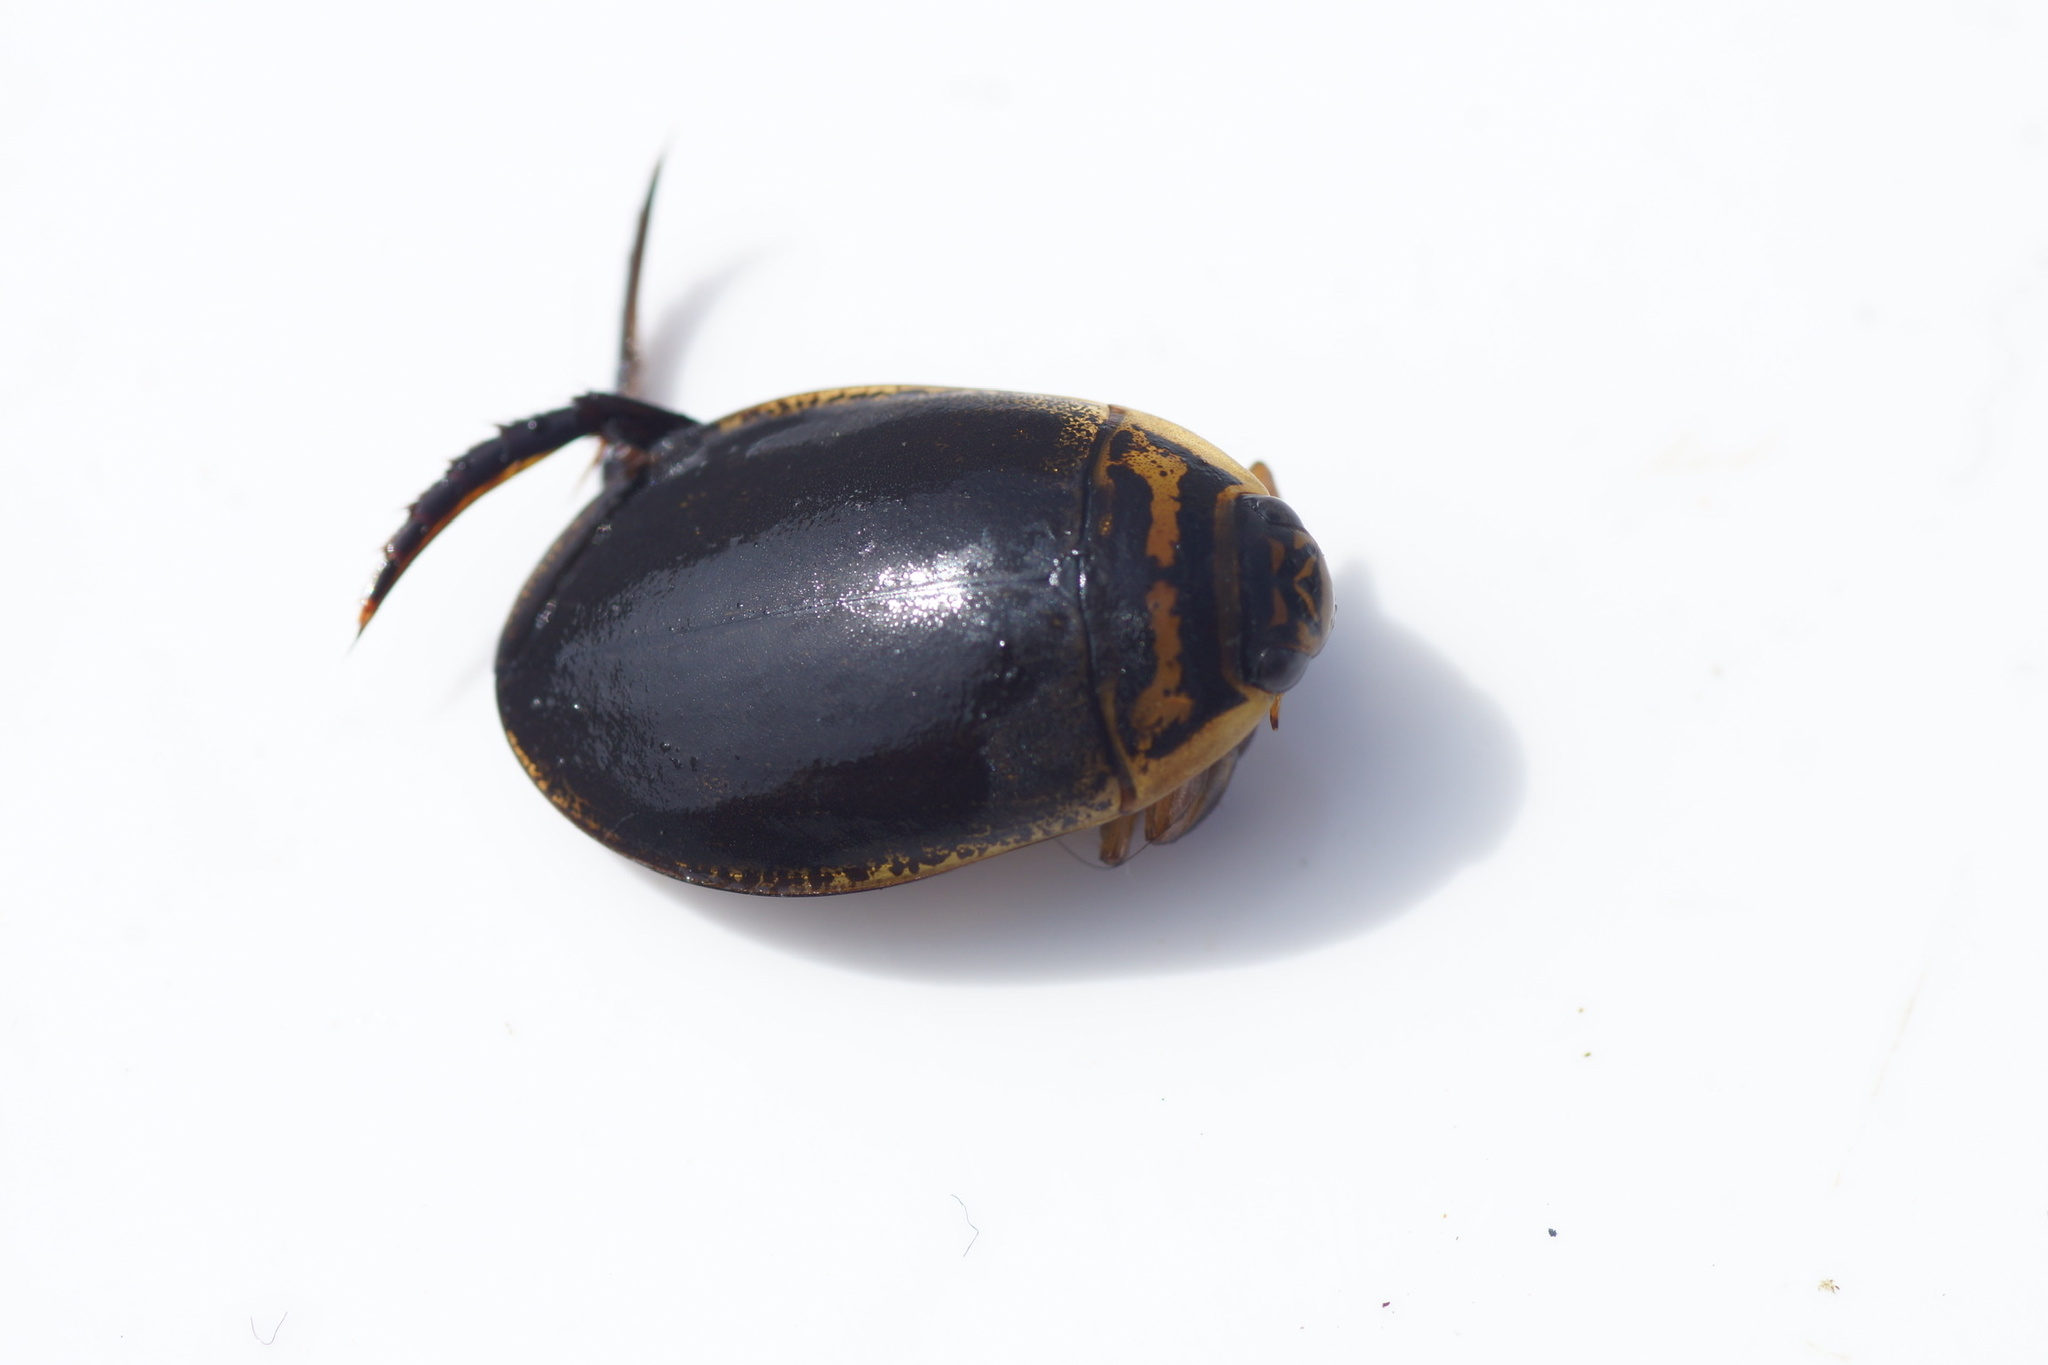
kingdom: Animalia
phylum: Arthropoda
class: Insecta
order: Coleoptera
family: Dytiscidae
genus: Acilius
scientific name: Acilius sulcatus
